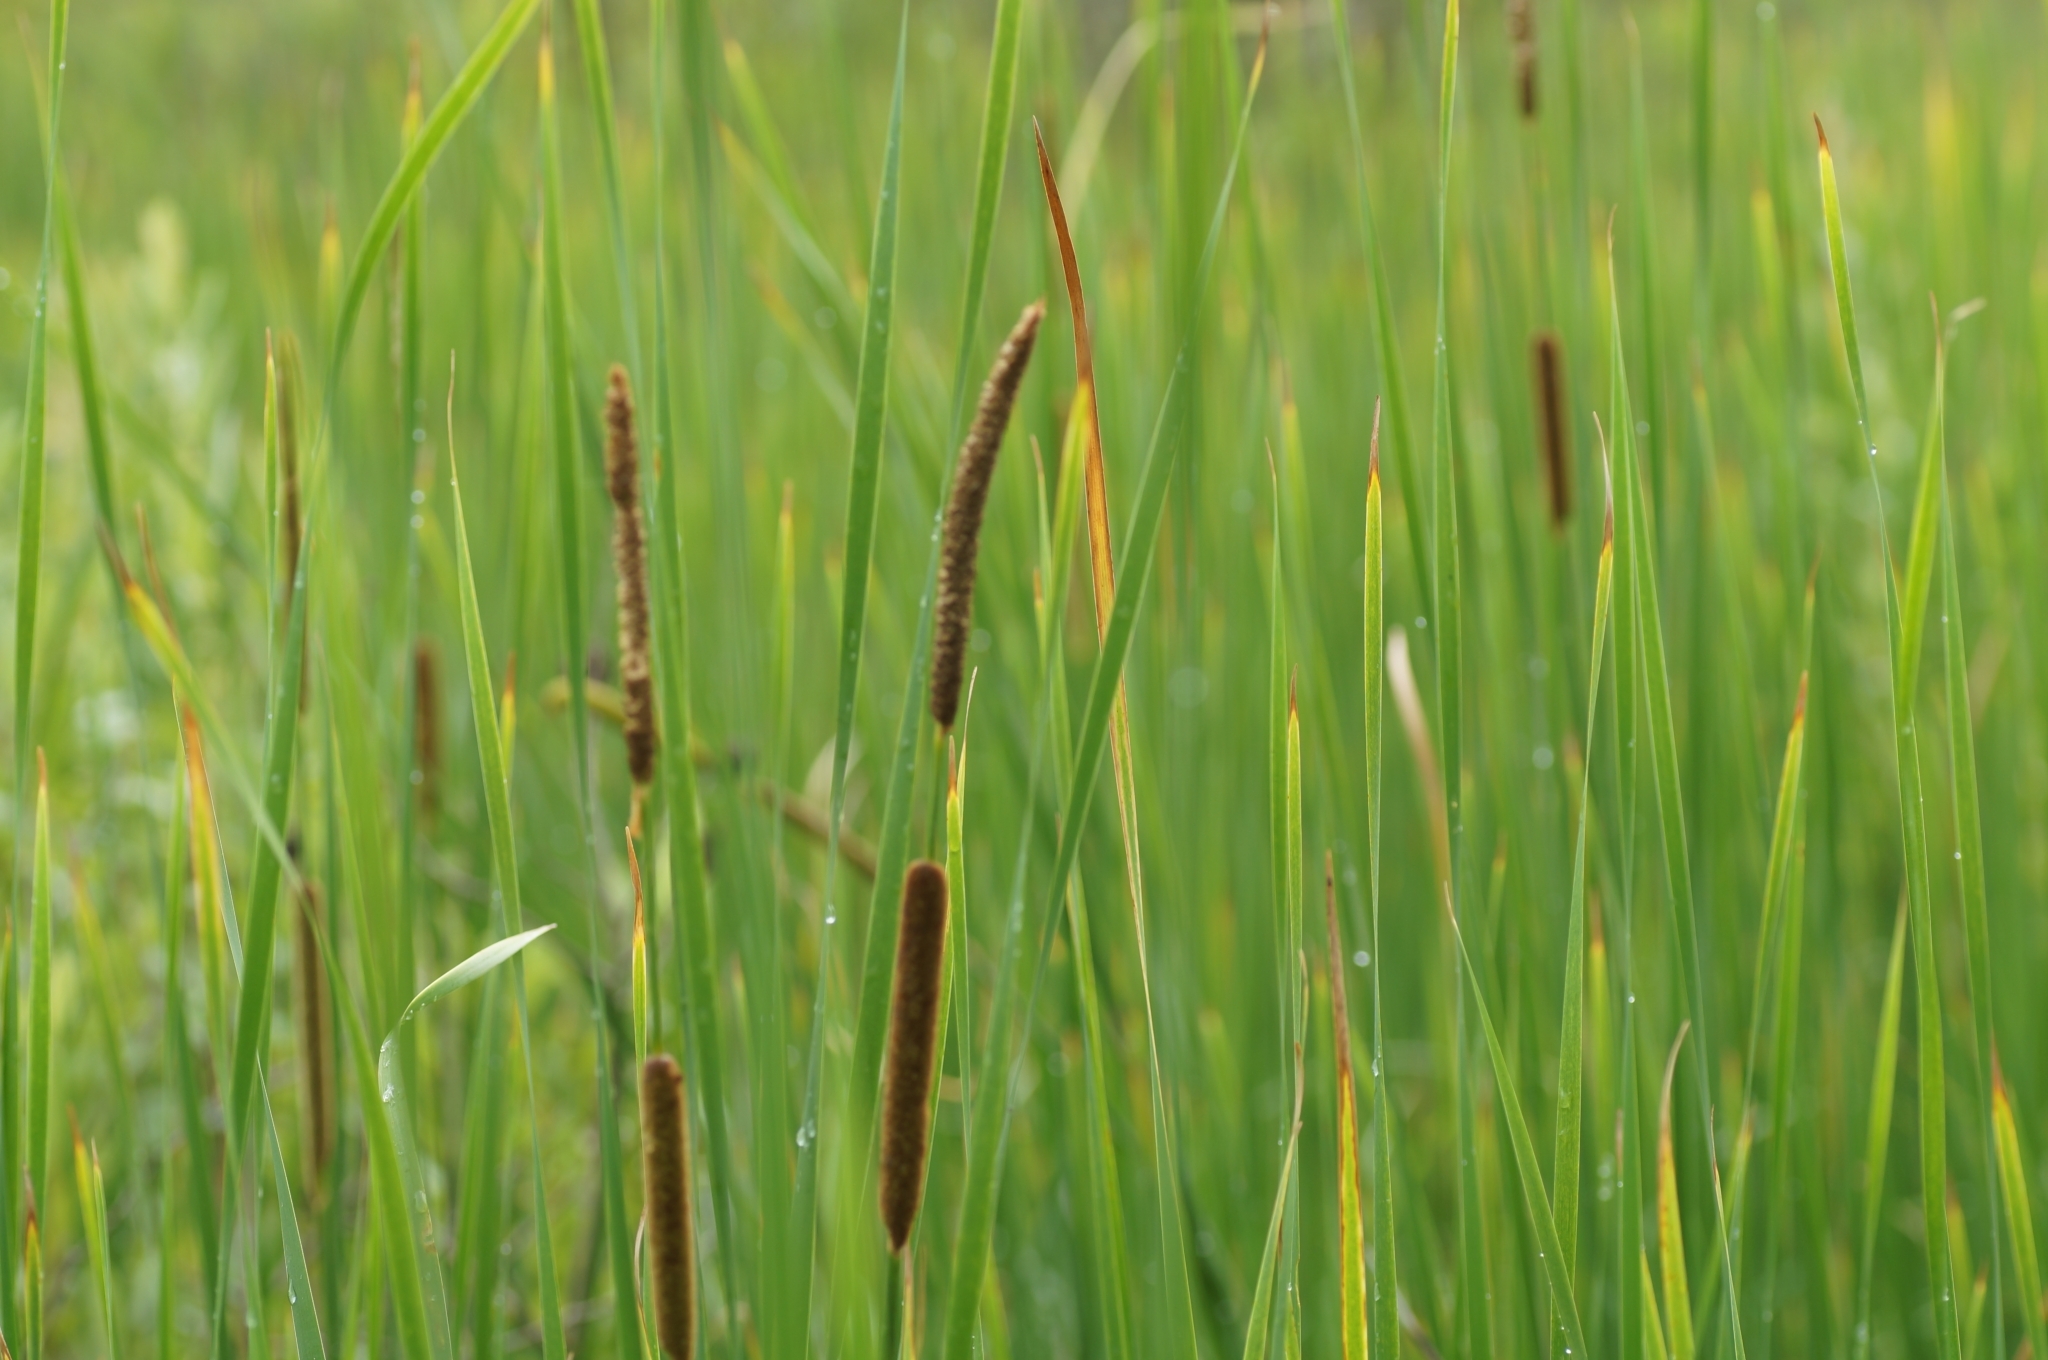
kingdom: Plantae
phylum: Tracheophyta
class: Liliopsida
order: Poales
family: Typhaceae
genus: Typha
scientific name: Typha angustifolia
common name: Lesser bulrush
